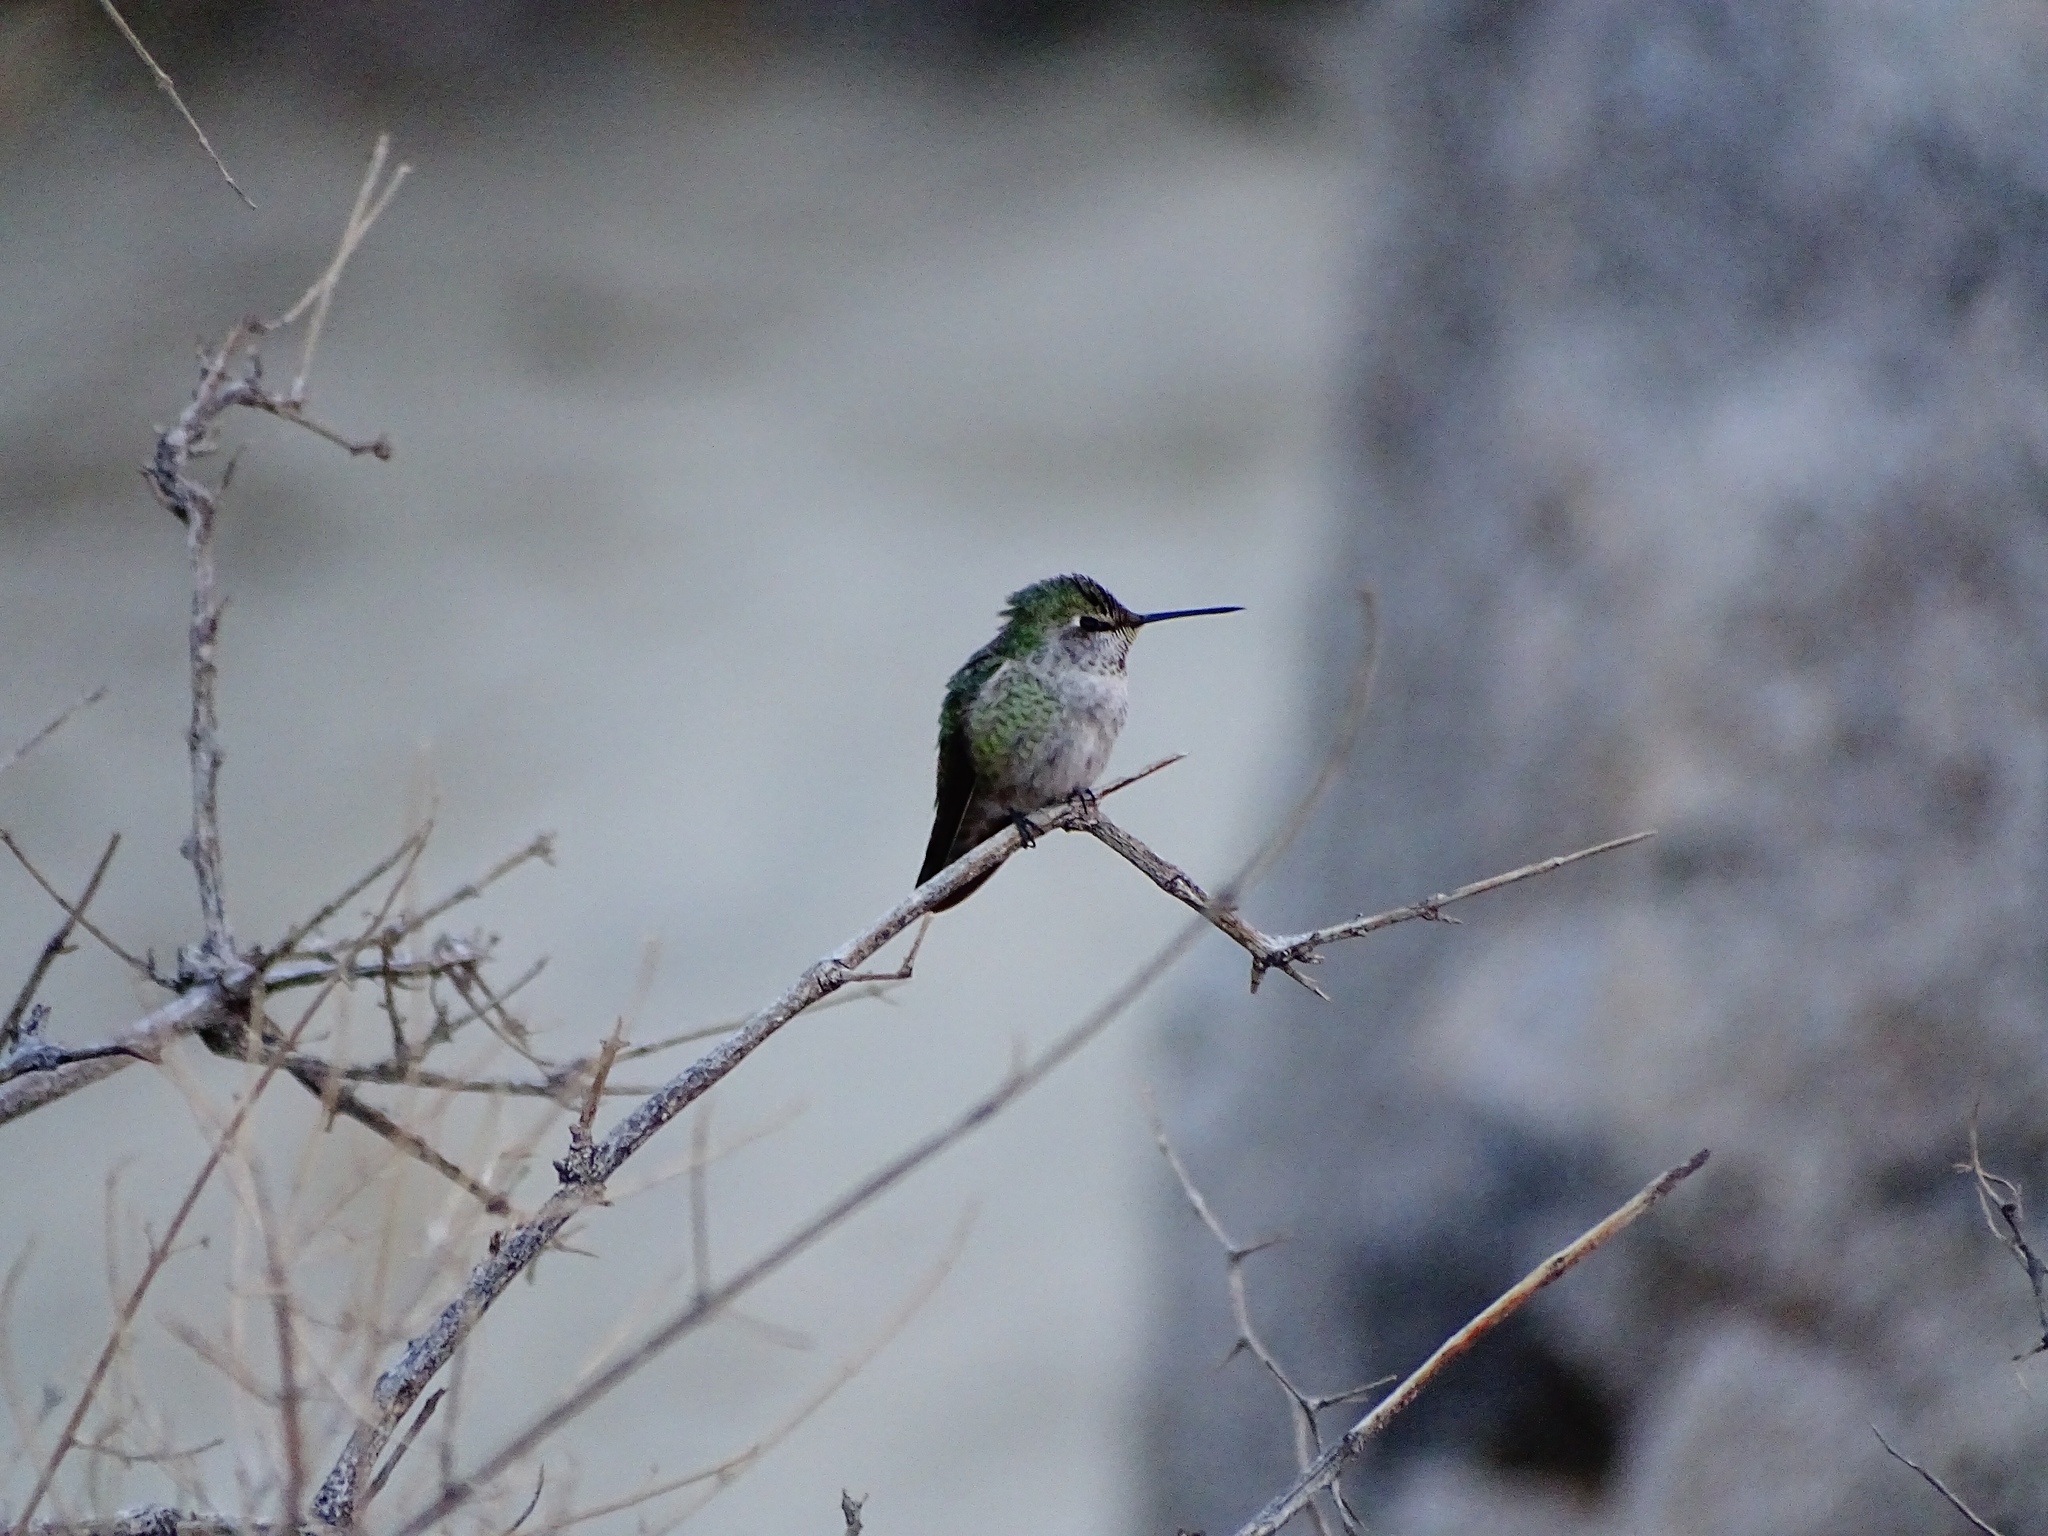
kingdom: Animalia
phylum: Chordata
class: Aves
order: Apodiformes
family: Trochilidae
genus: Calypte
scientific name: Calypte anna
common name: Anna's hummingbird
